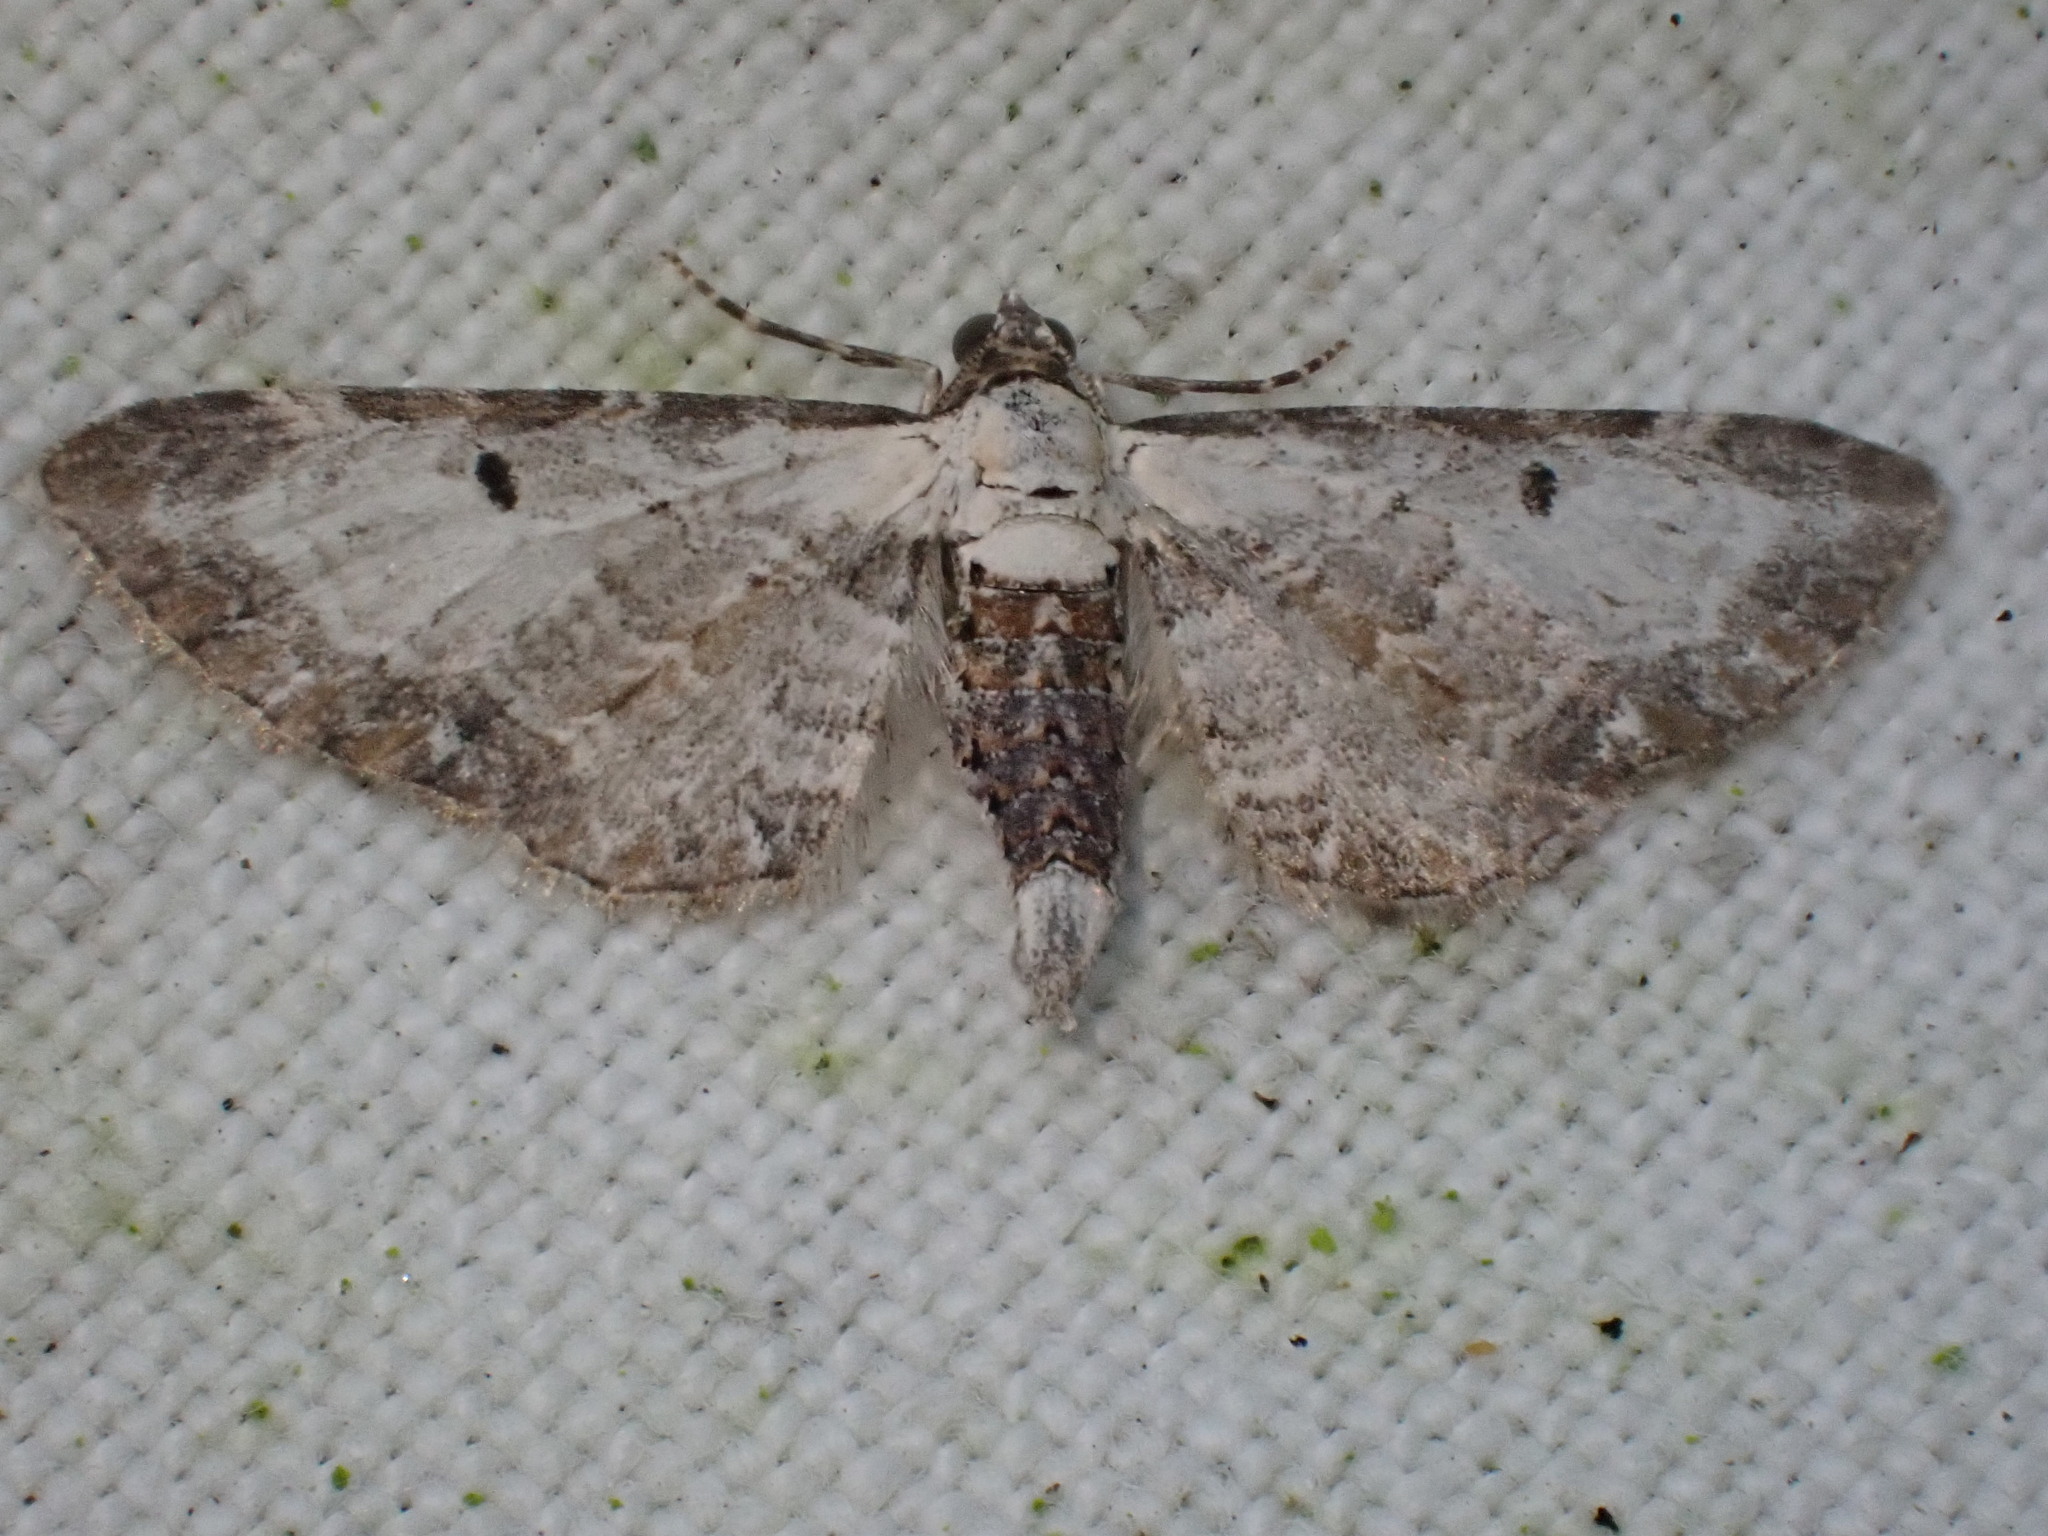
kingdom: Animalia
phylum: Arthropoda
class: Insecta
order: Lepidoptera
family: Geometridae
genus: Eupithecia
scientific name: Eupithecia succenturiata
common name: Bordered pug
